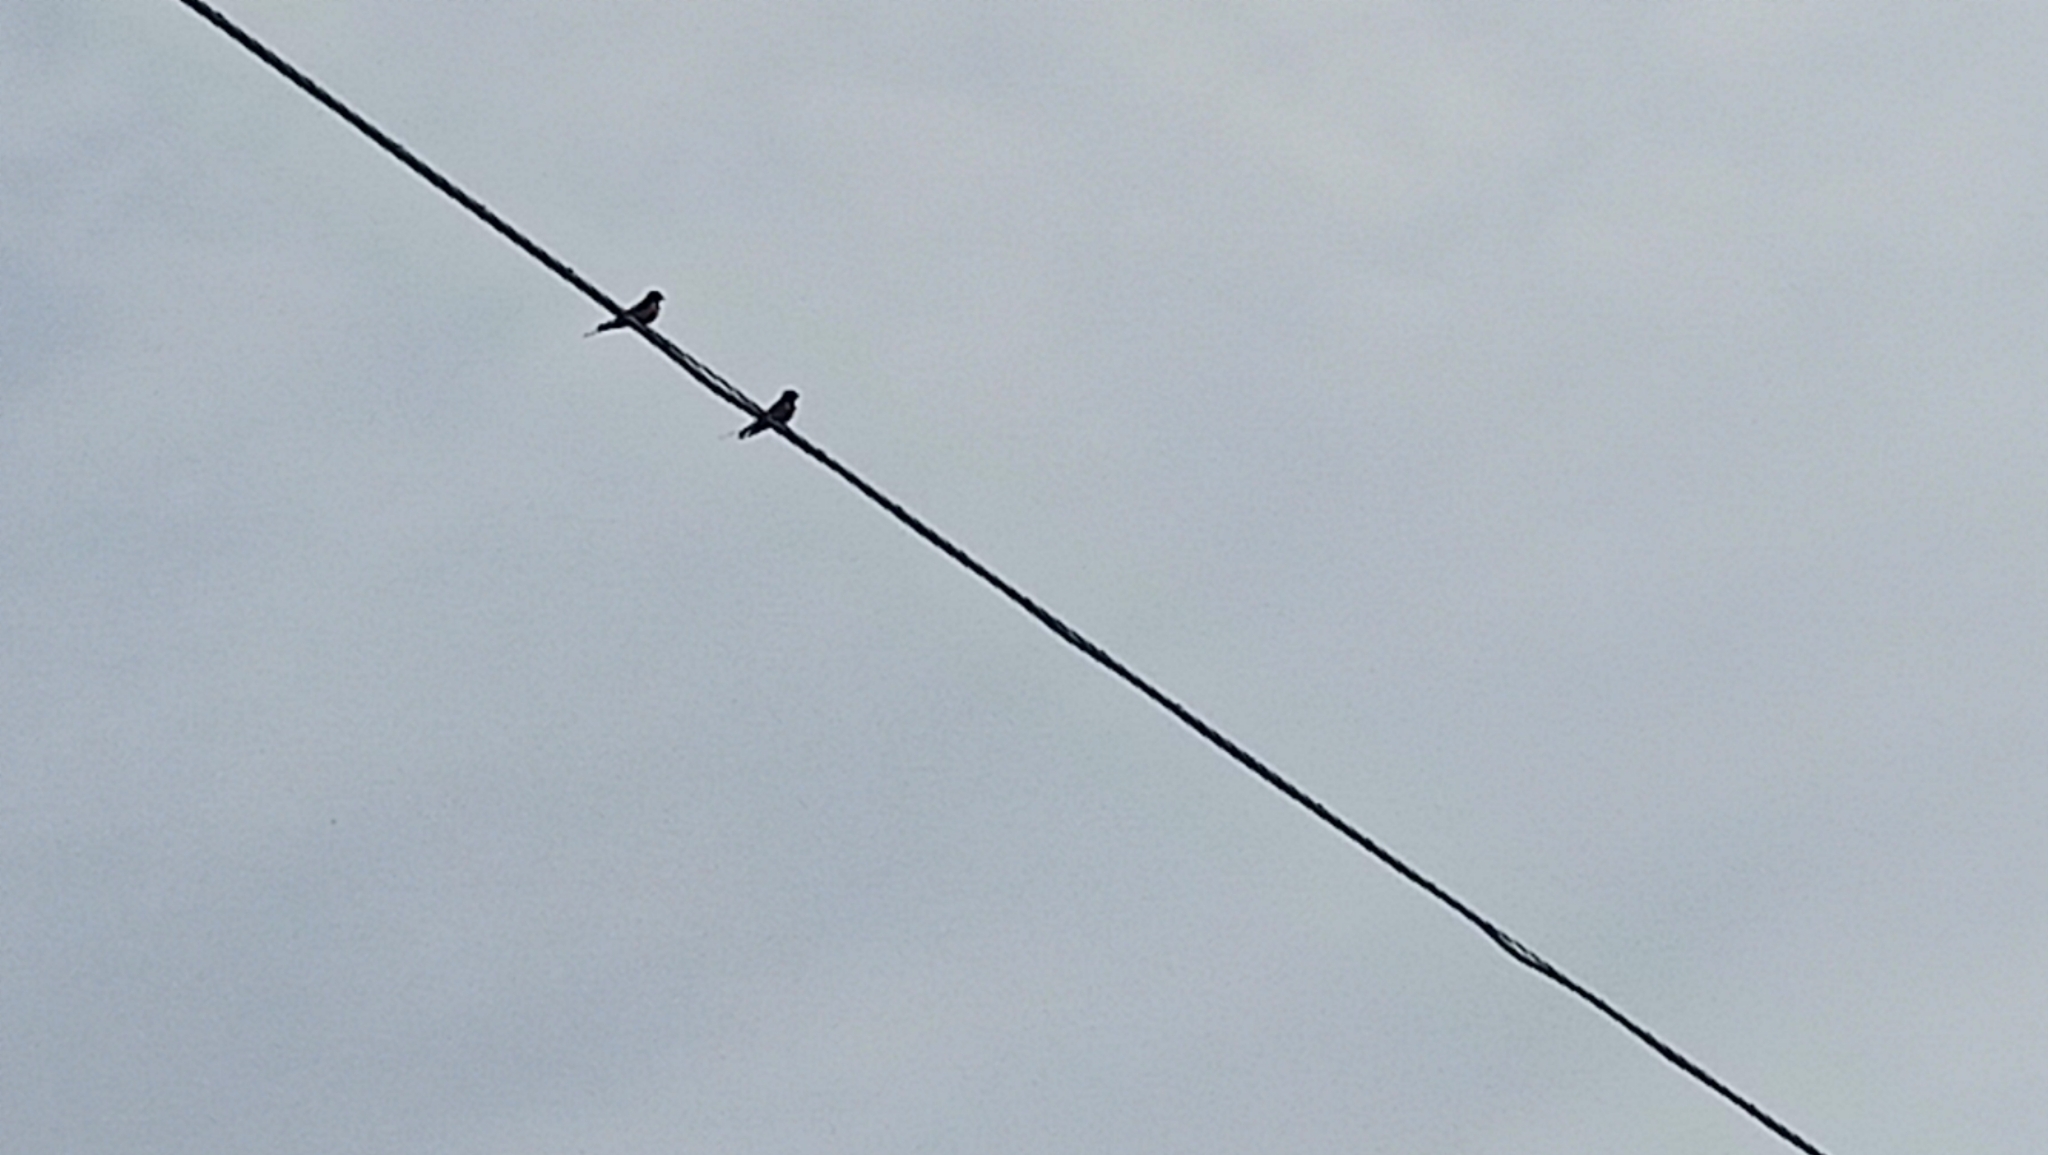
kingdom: Animalia
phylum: Chordata
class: Aves
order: Passeriformes
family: Hirundinidae
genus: Hirundo
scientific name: Hirundo rustica
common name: Barn swallow
